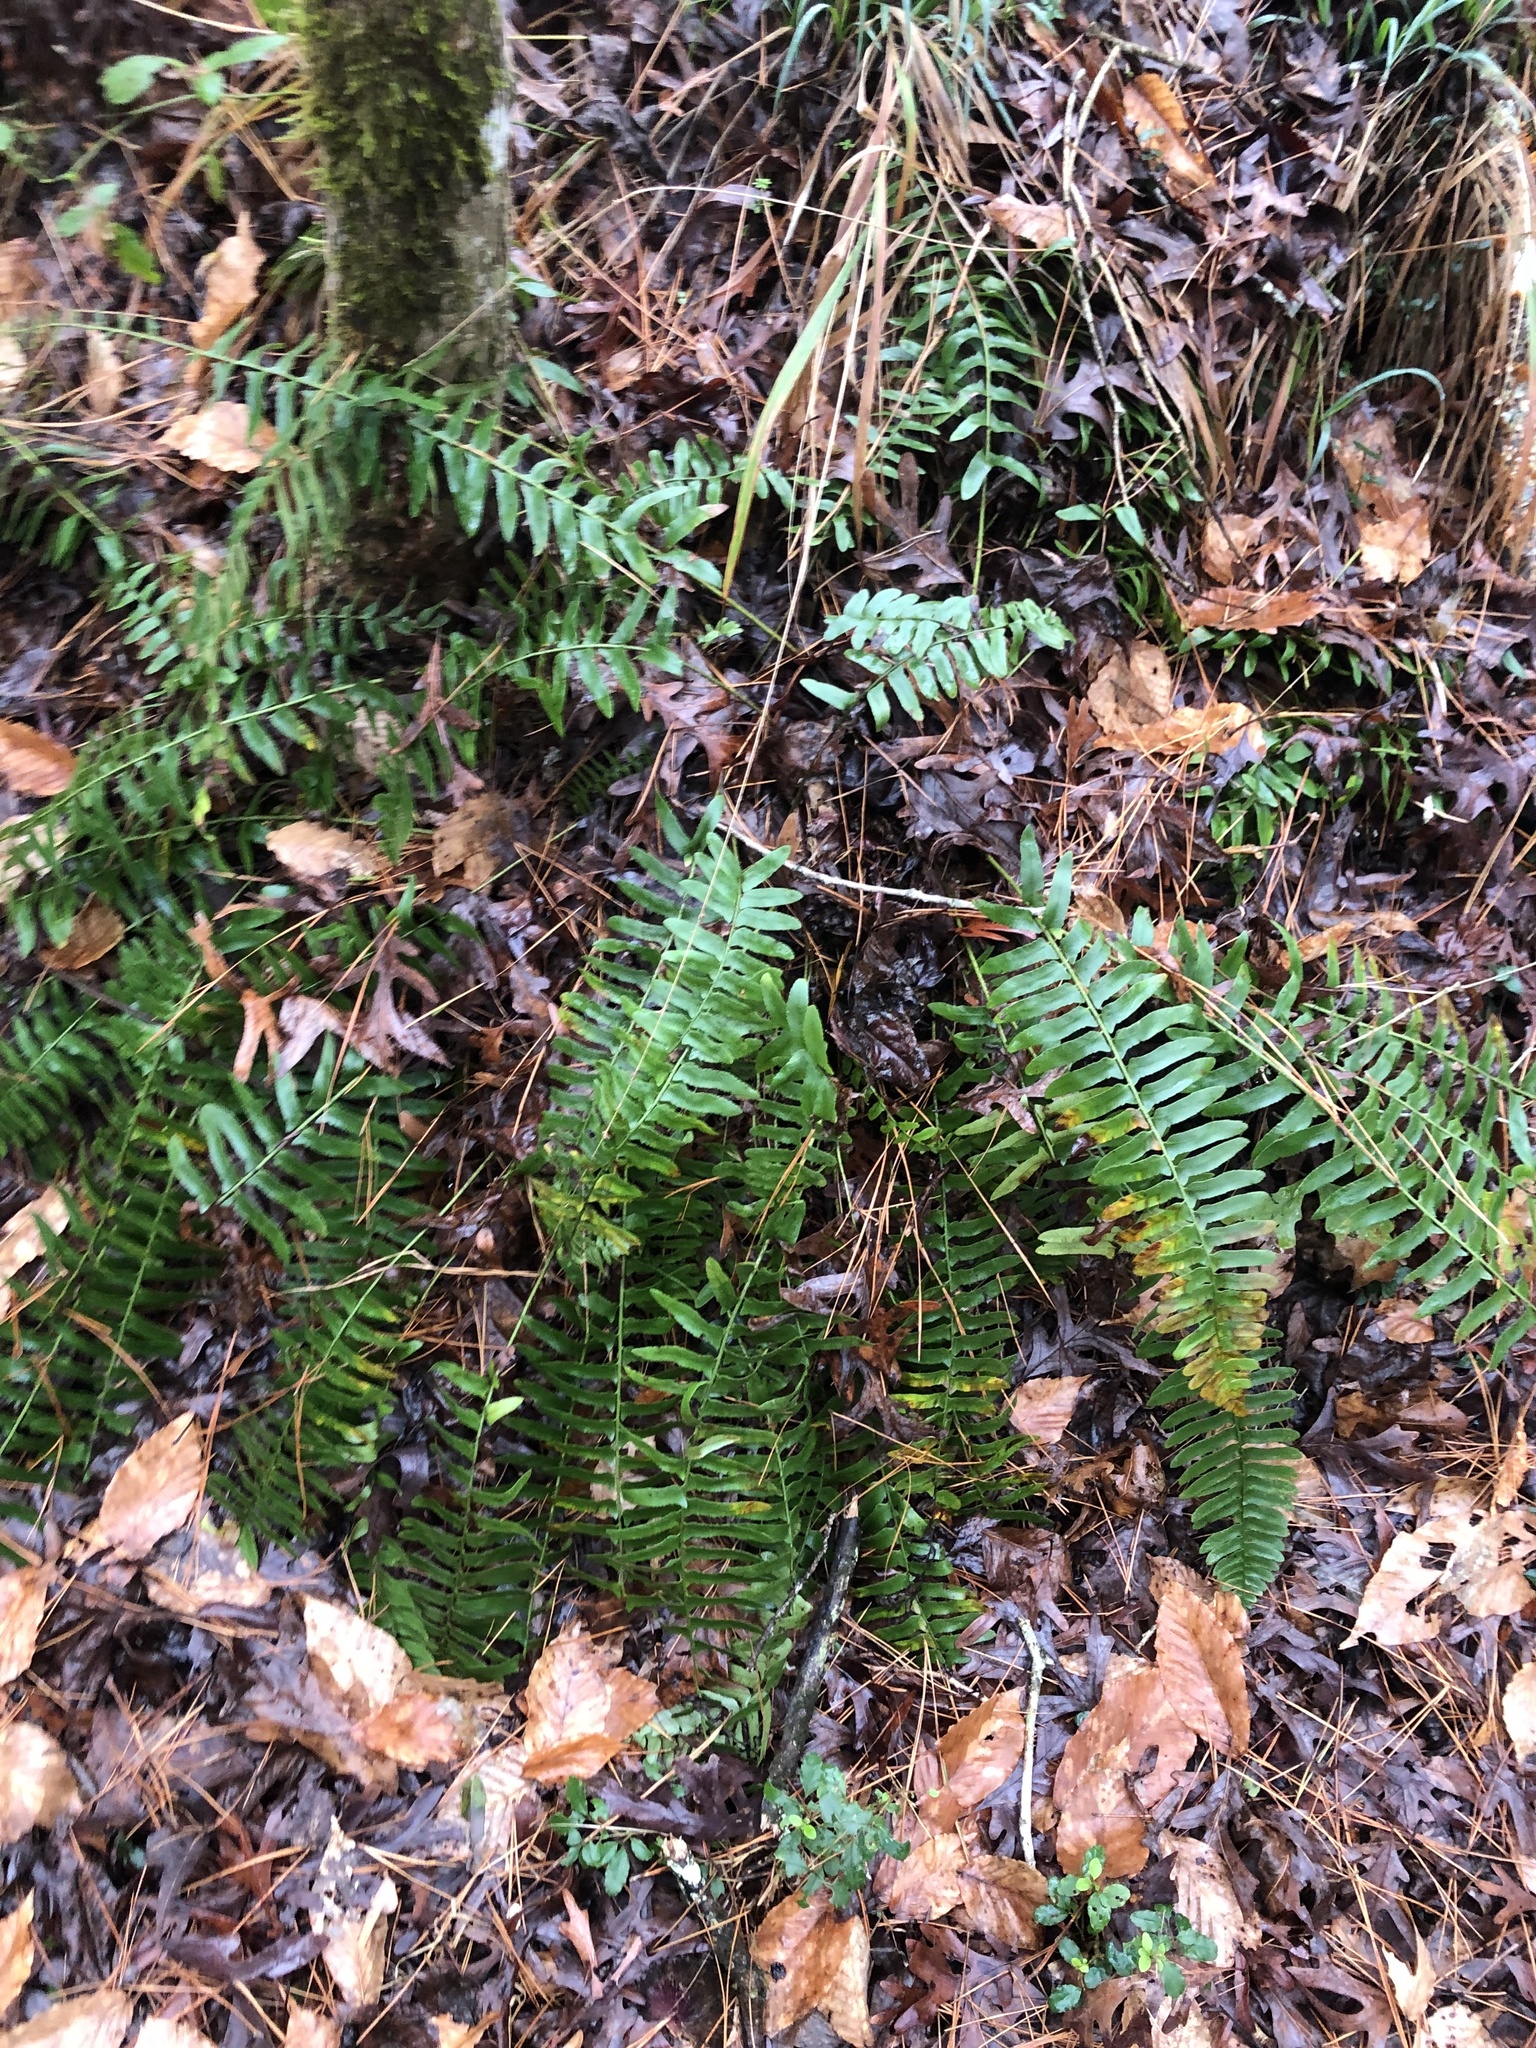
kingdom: Plantae
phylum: Tracheophyta
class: Polypodiopsida
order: Polypodiales
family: Dryopteridaceae
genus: Polystichum
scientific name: Polystichum acrostichoides
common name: Christmas fern
